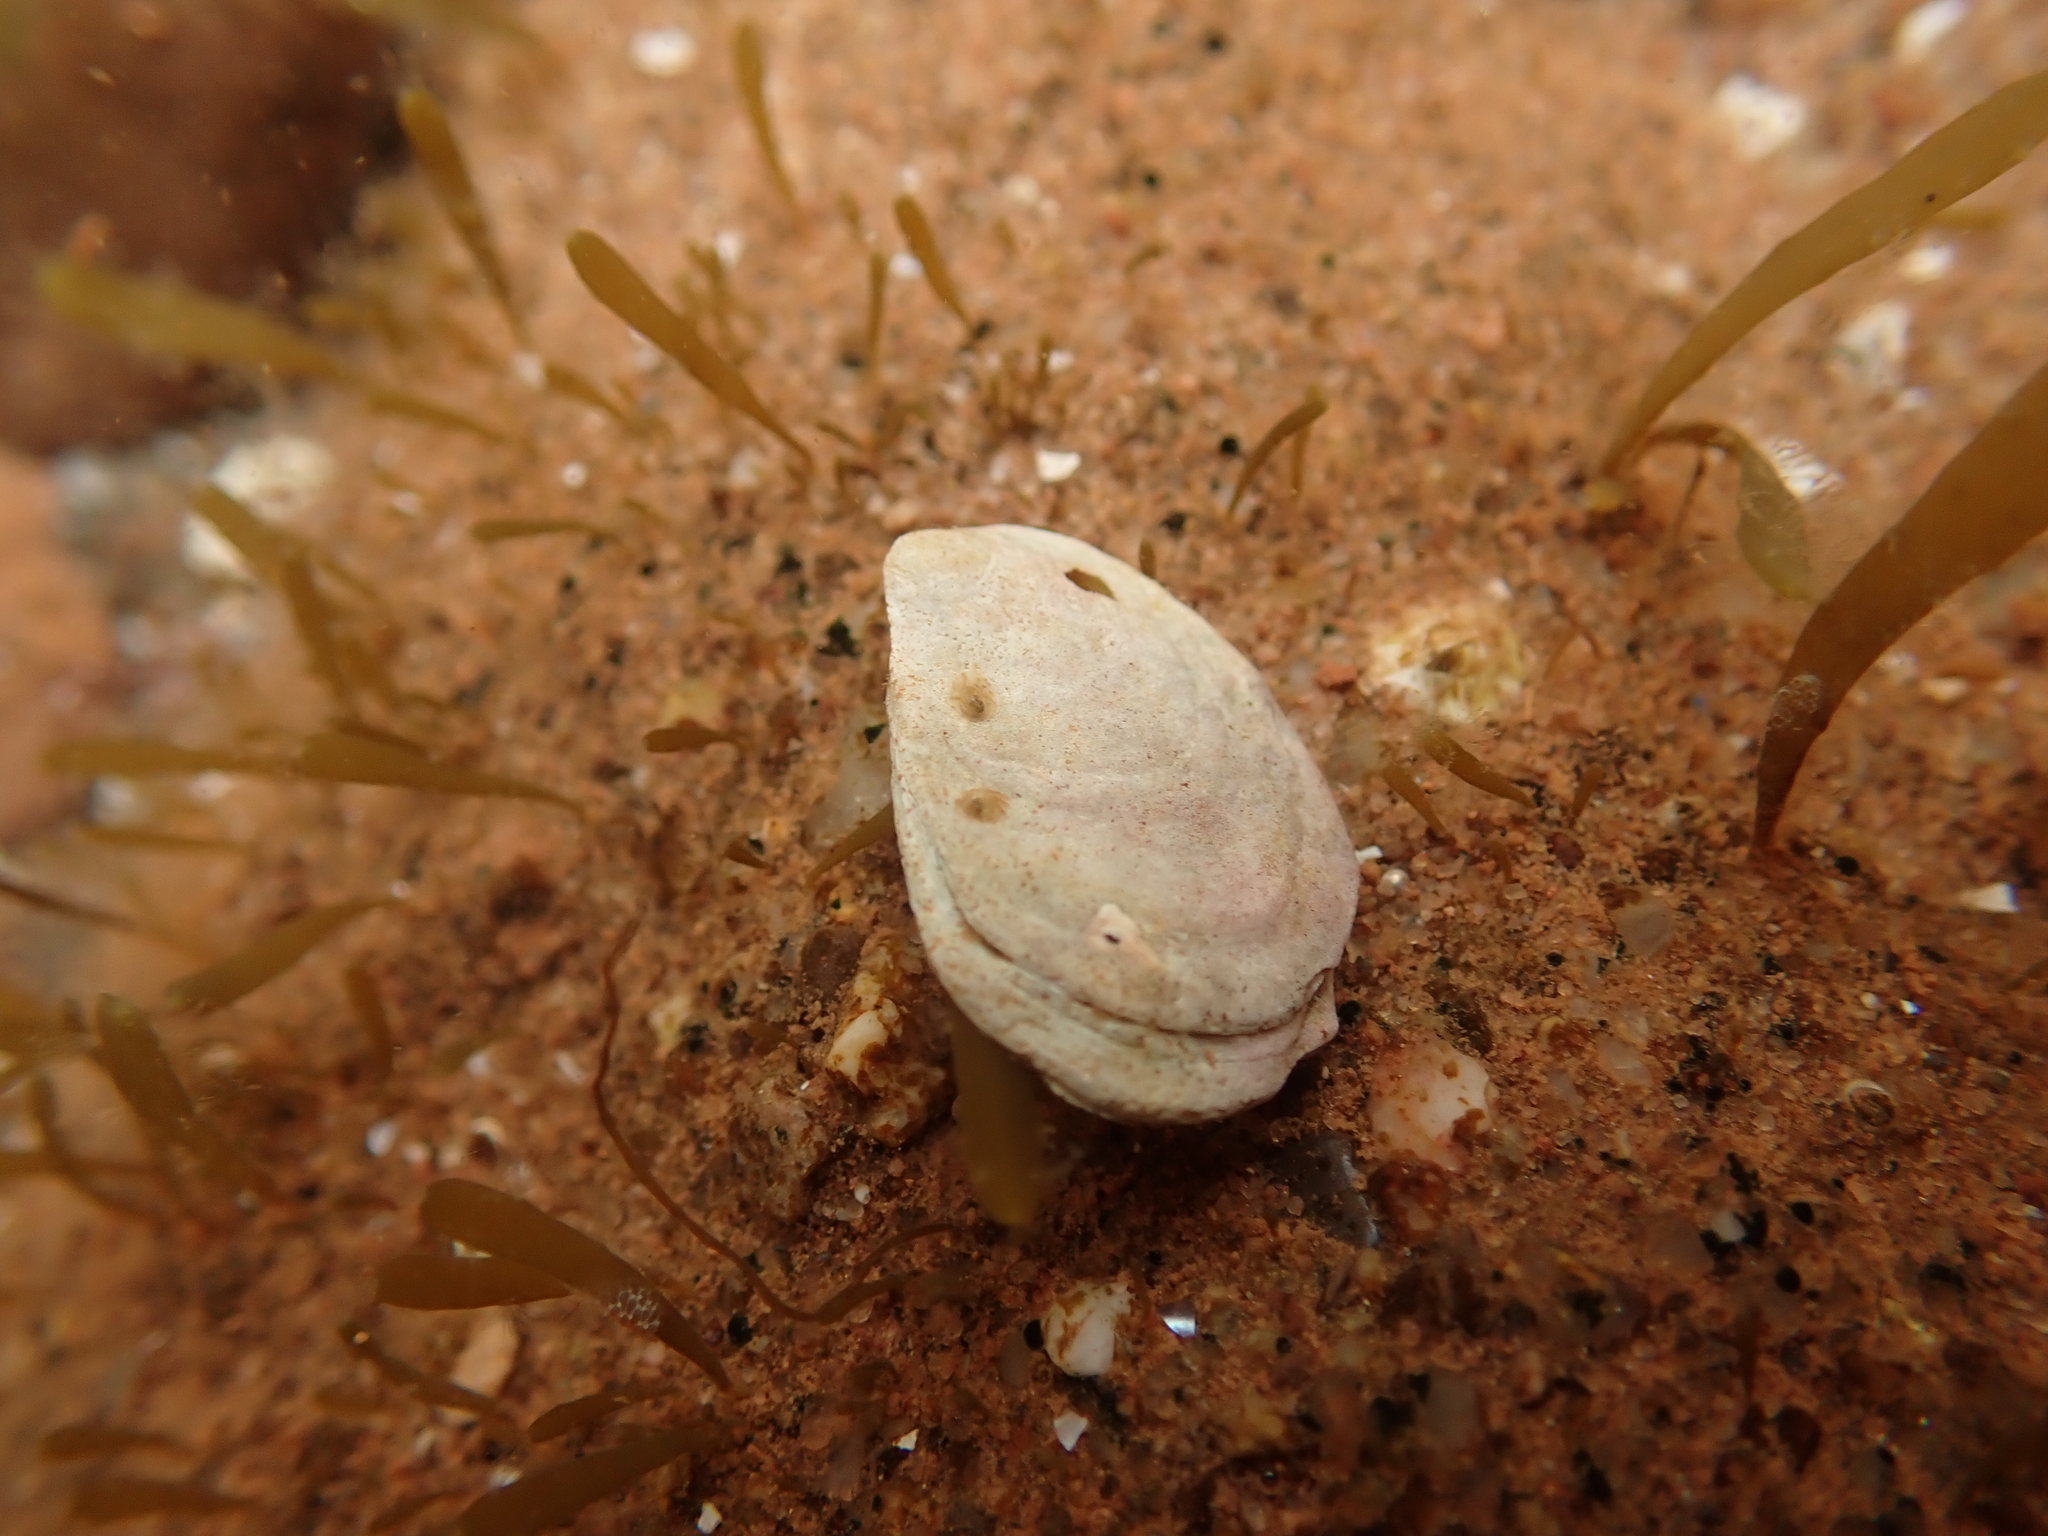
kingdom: Animalia
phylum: Mollusca
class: Gastropoda
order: Littorinimorpha
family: Calyptraeidae
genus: Crepidula
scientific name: Crepidula plana
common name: Eastern white slippersnail
